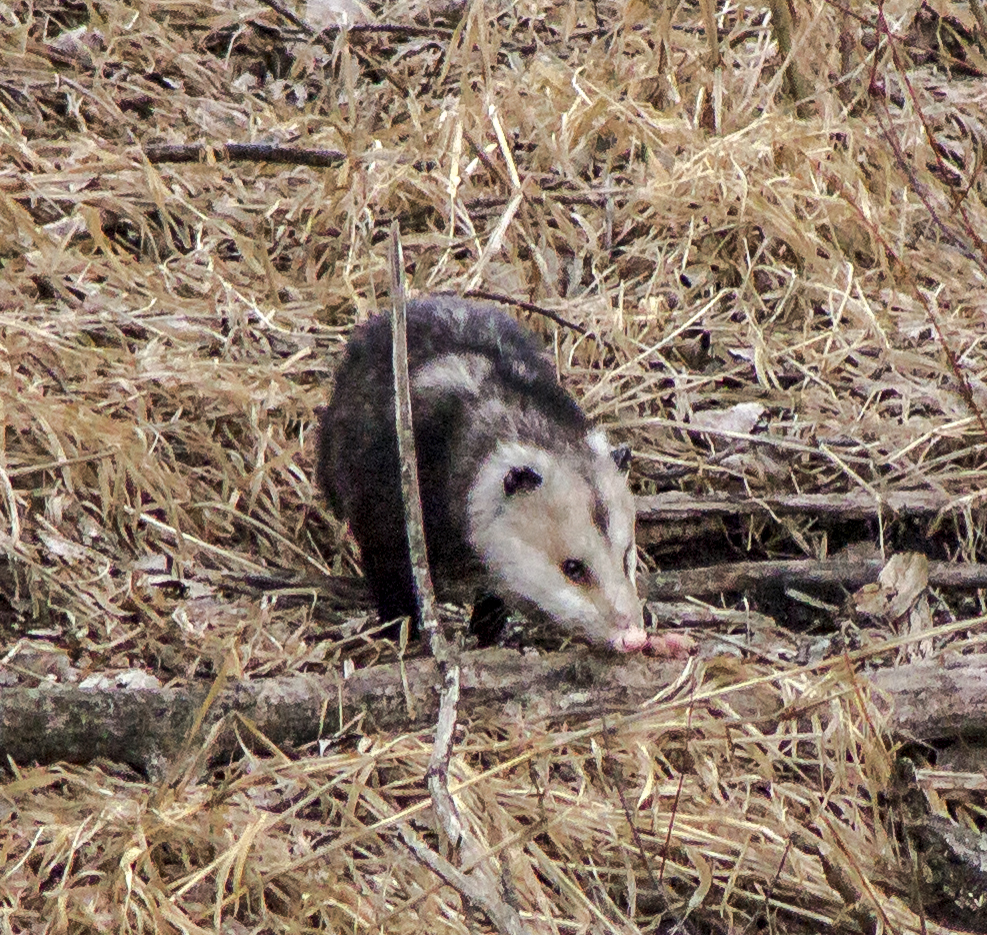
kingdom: Animalia
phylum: Chordata
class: Mammalia
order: Didelphimorphia
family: Didelphidae
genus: Didelphis
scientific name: Didelphis virginiana
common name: Virginia opossum
